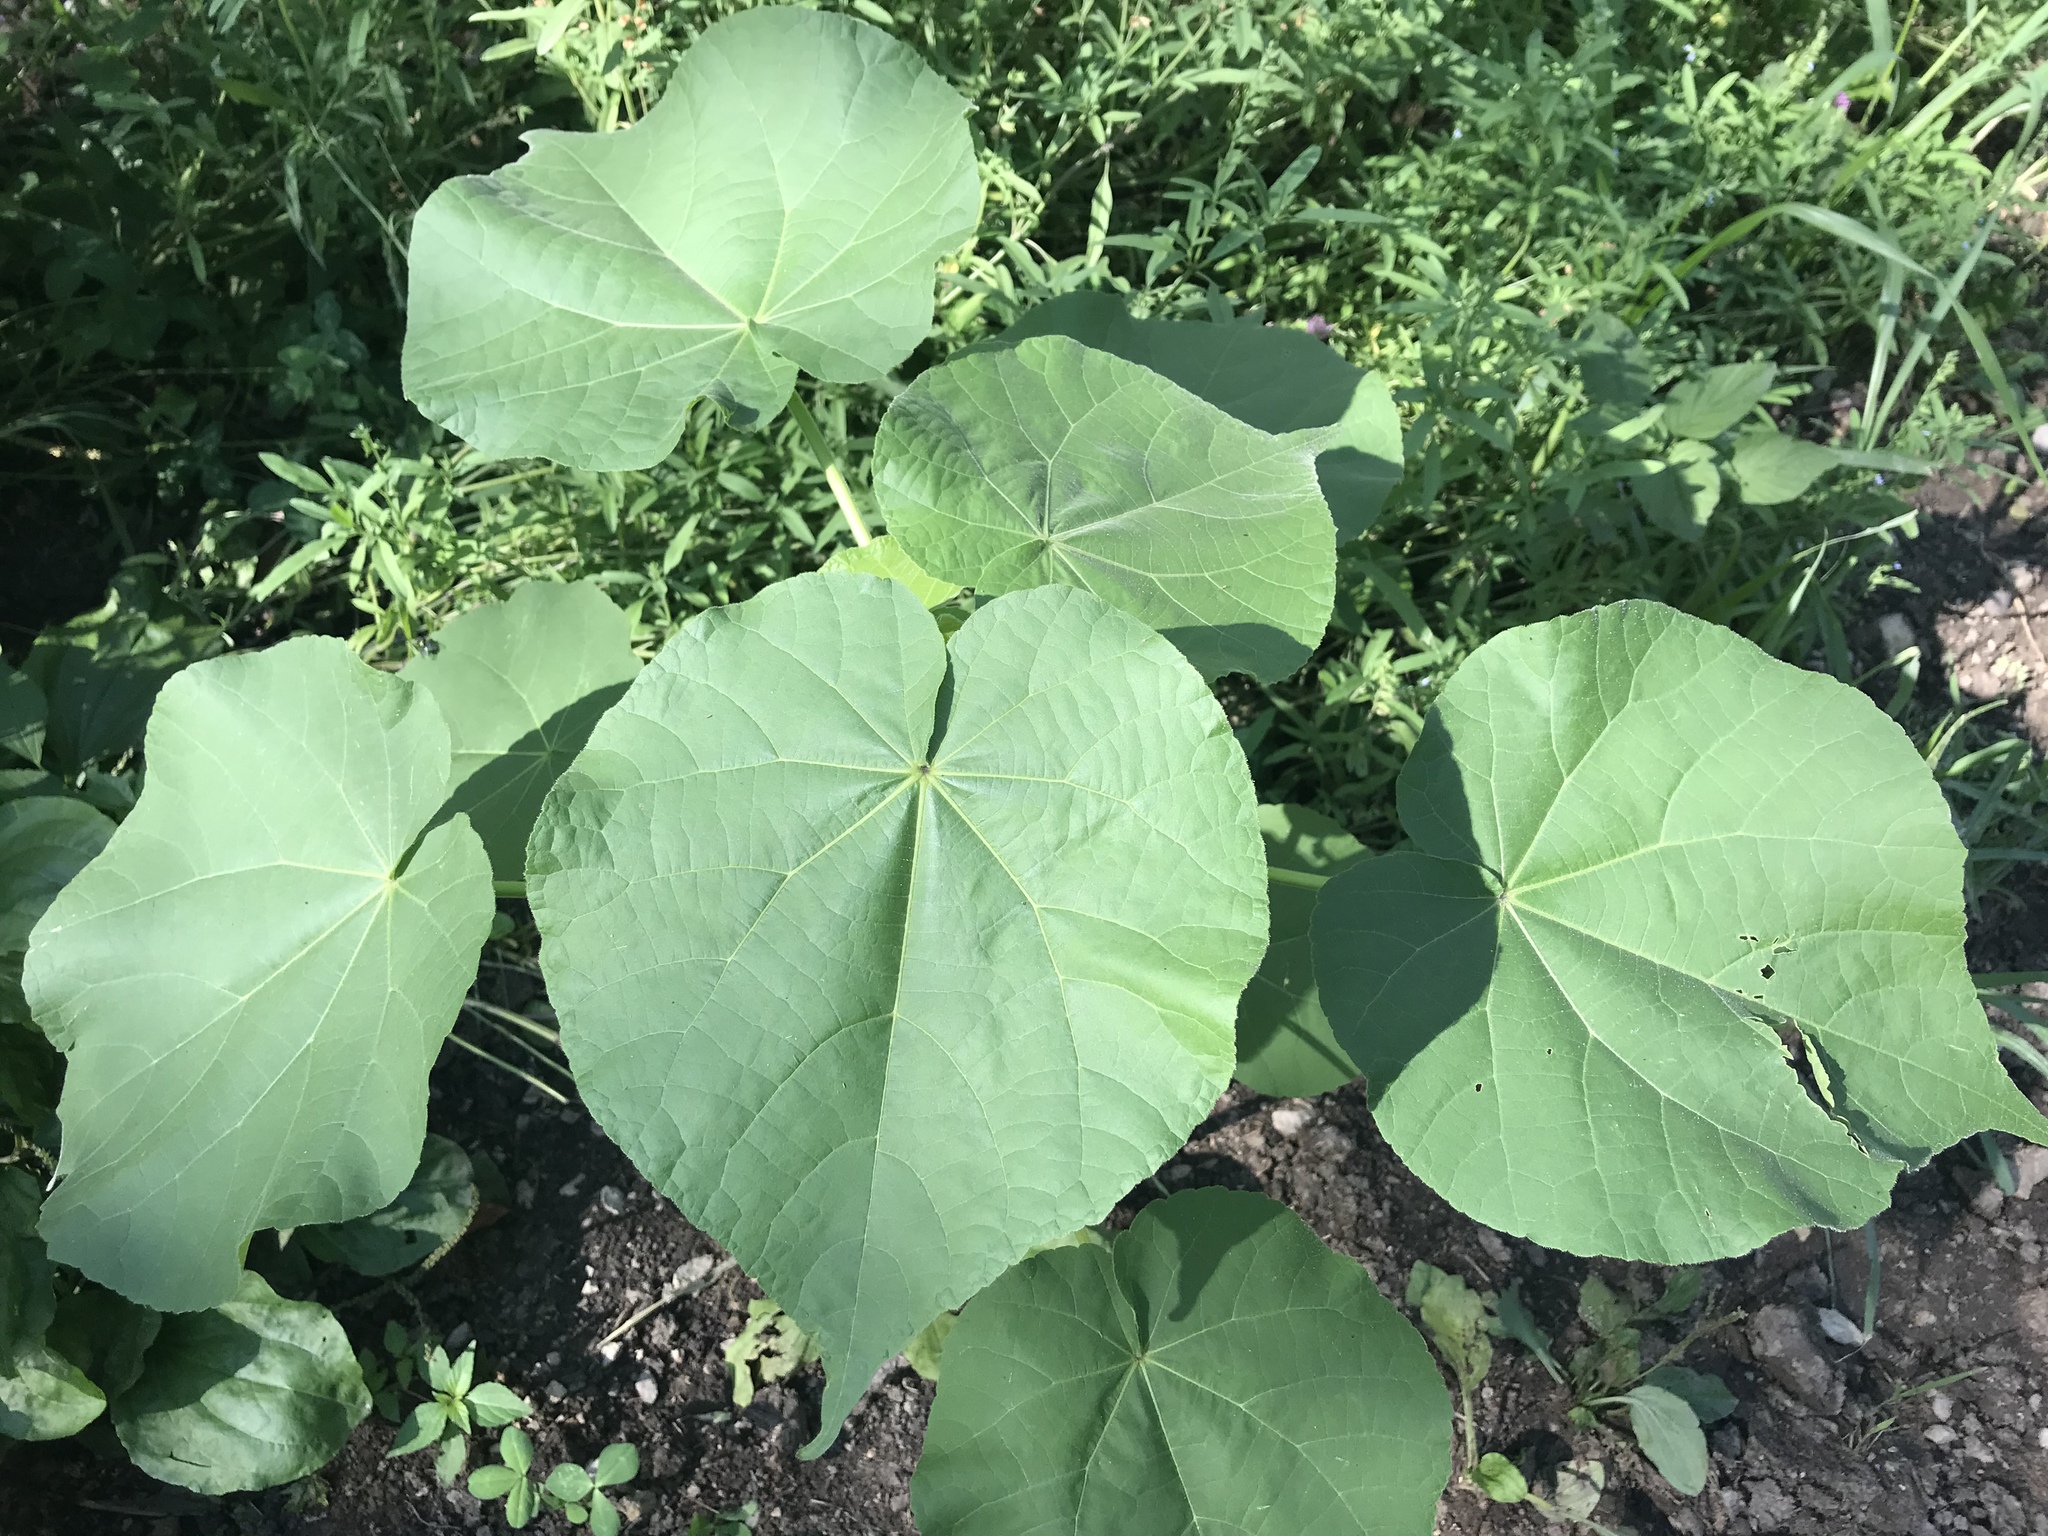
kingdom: Plantae
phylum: Tracheophyta
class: Magnoliopsida
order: Malvales
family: Malvaceae
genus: Abutilon
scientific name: Abutilon theophrasti
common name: Velvetleaf
